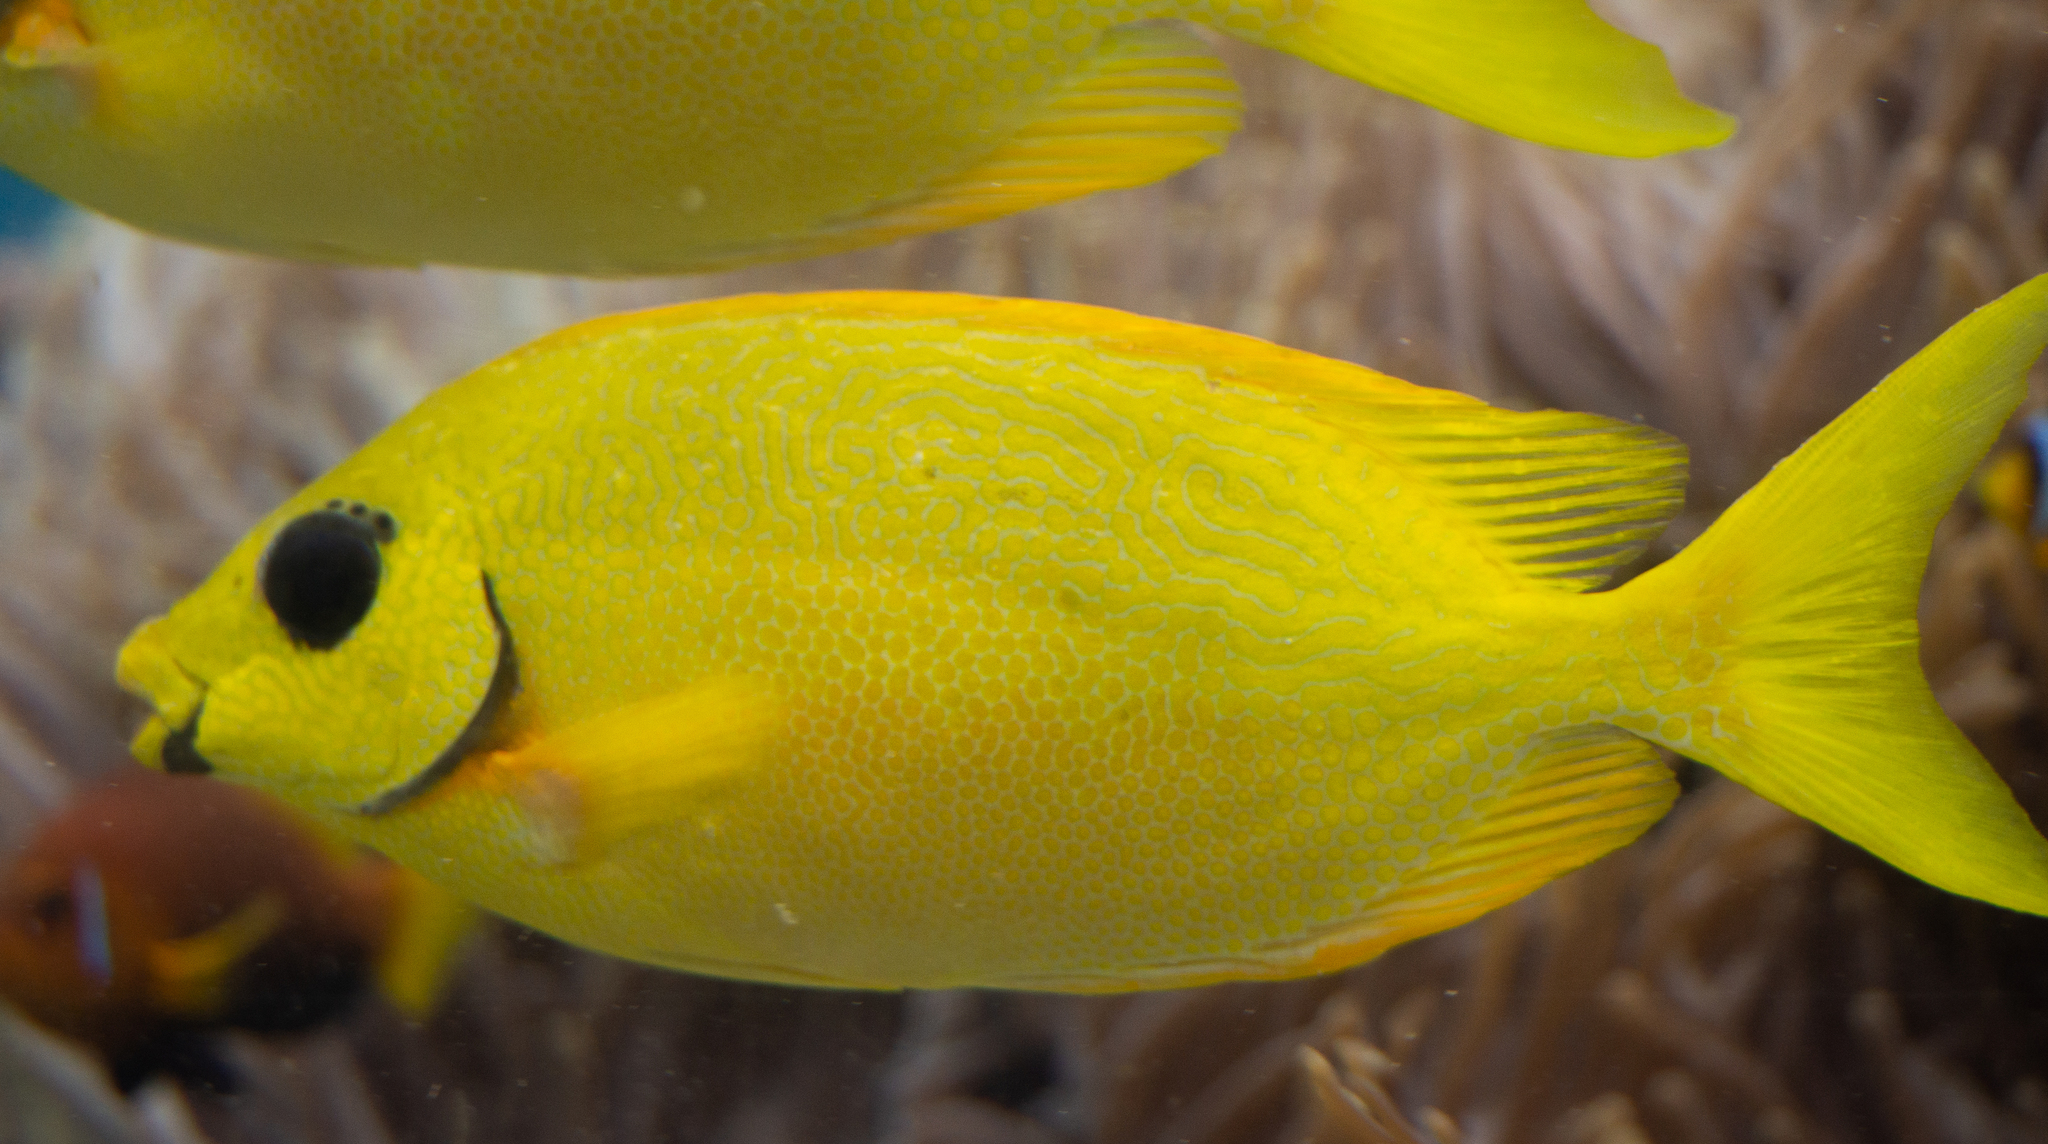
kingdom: Animalia
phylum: Chordata
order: Perciformes
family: Siganidae
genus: Siganus
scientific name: Siganus puelloides
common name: Blackeye rabbitfish
